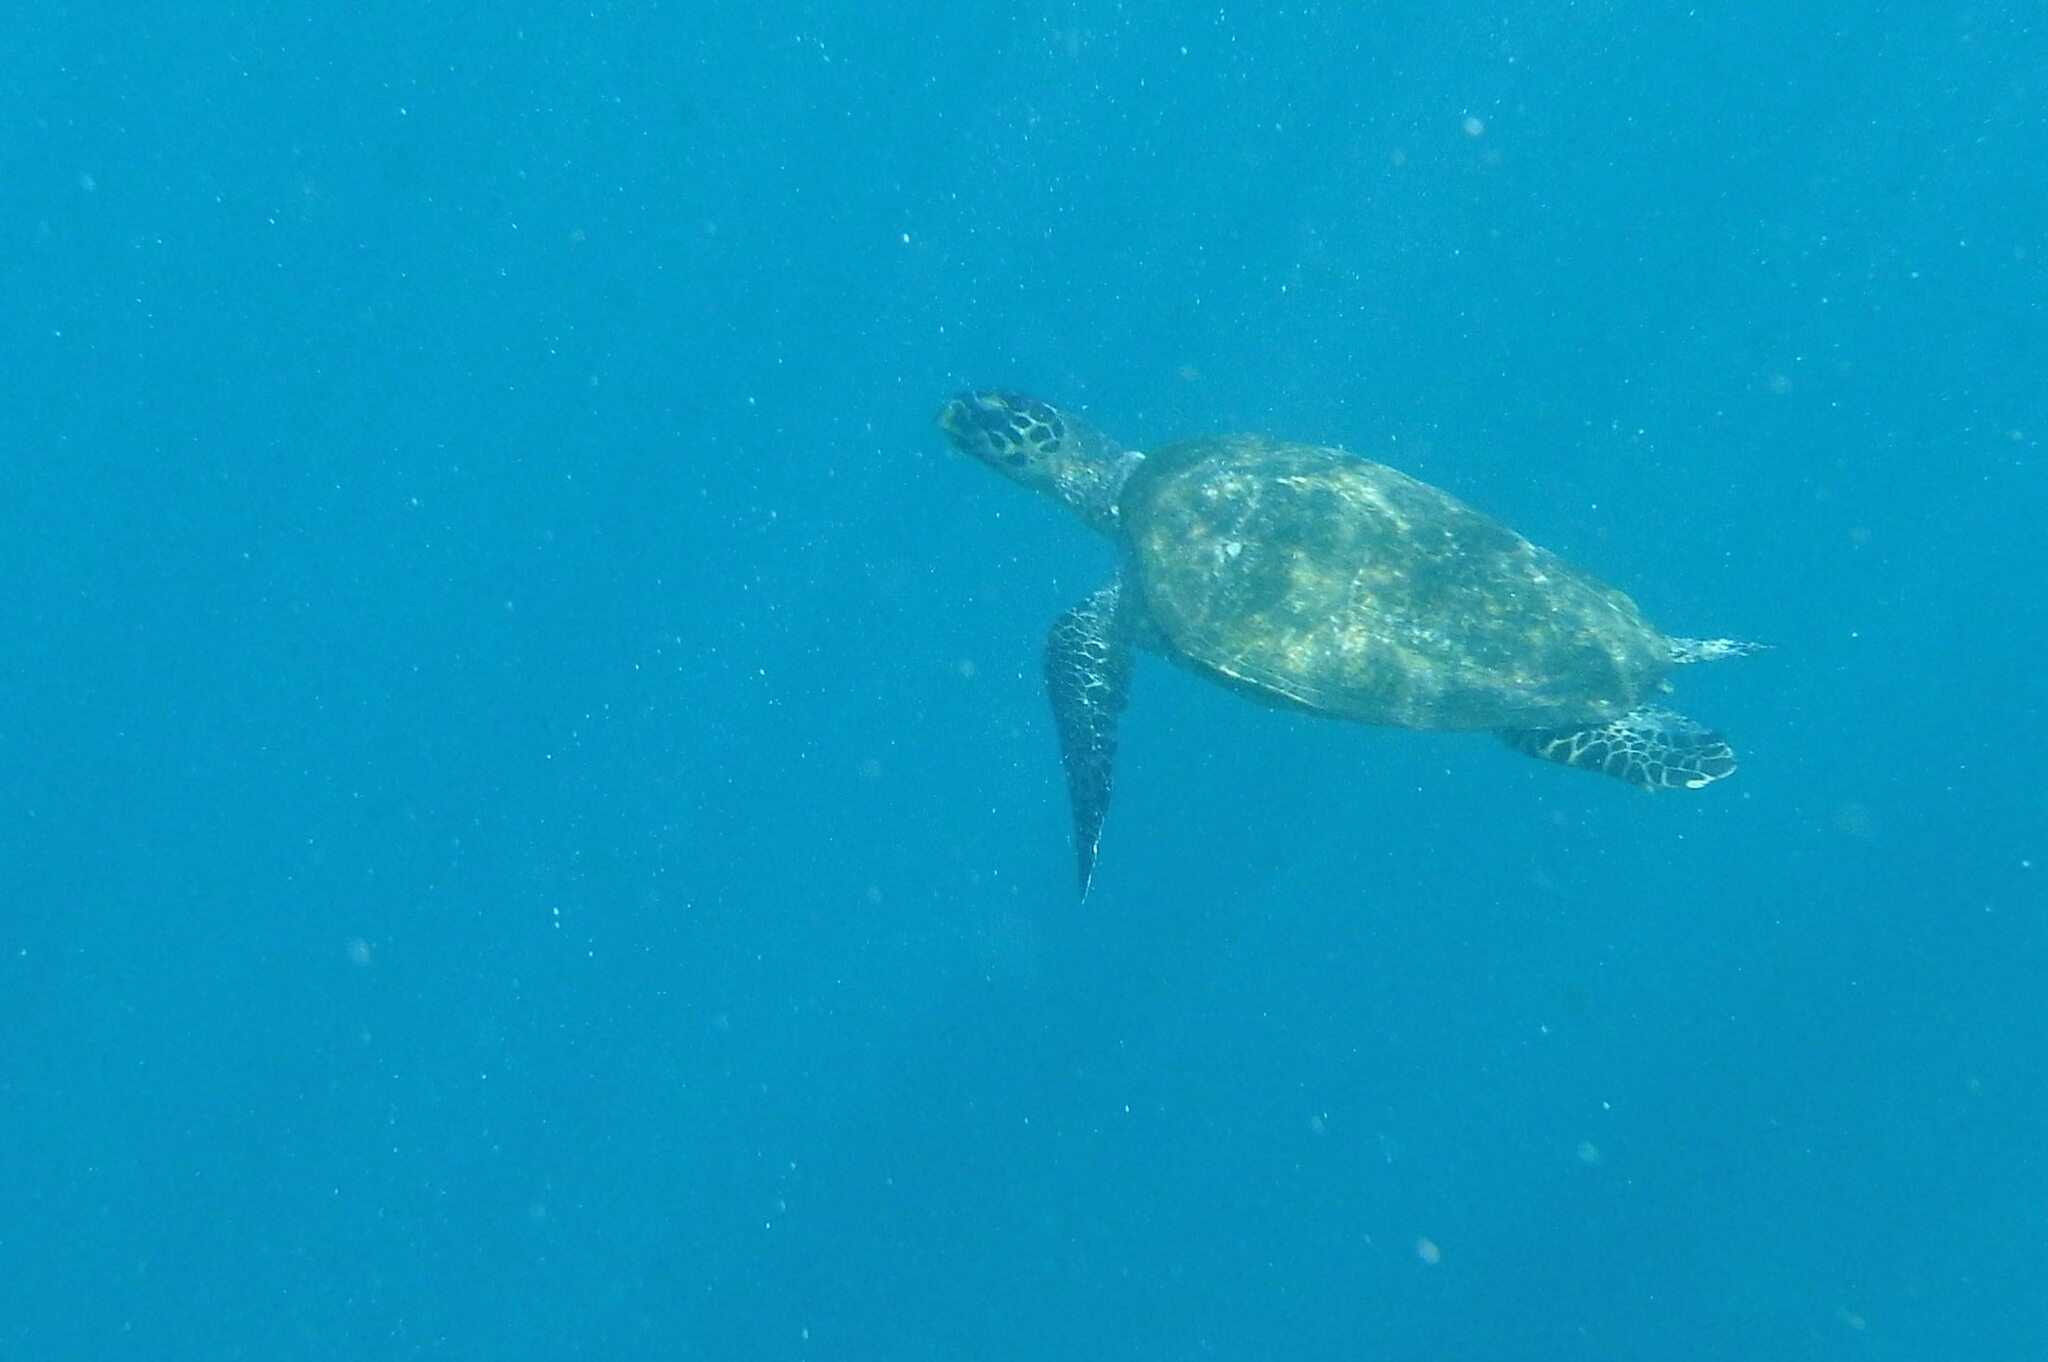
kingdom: Animalia
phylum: Chordata
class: Testudines
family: Cheloniidae
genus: Eretmochelys
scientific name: Eretmochelys imbricata
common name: Hawksbill turtle
